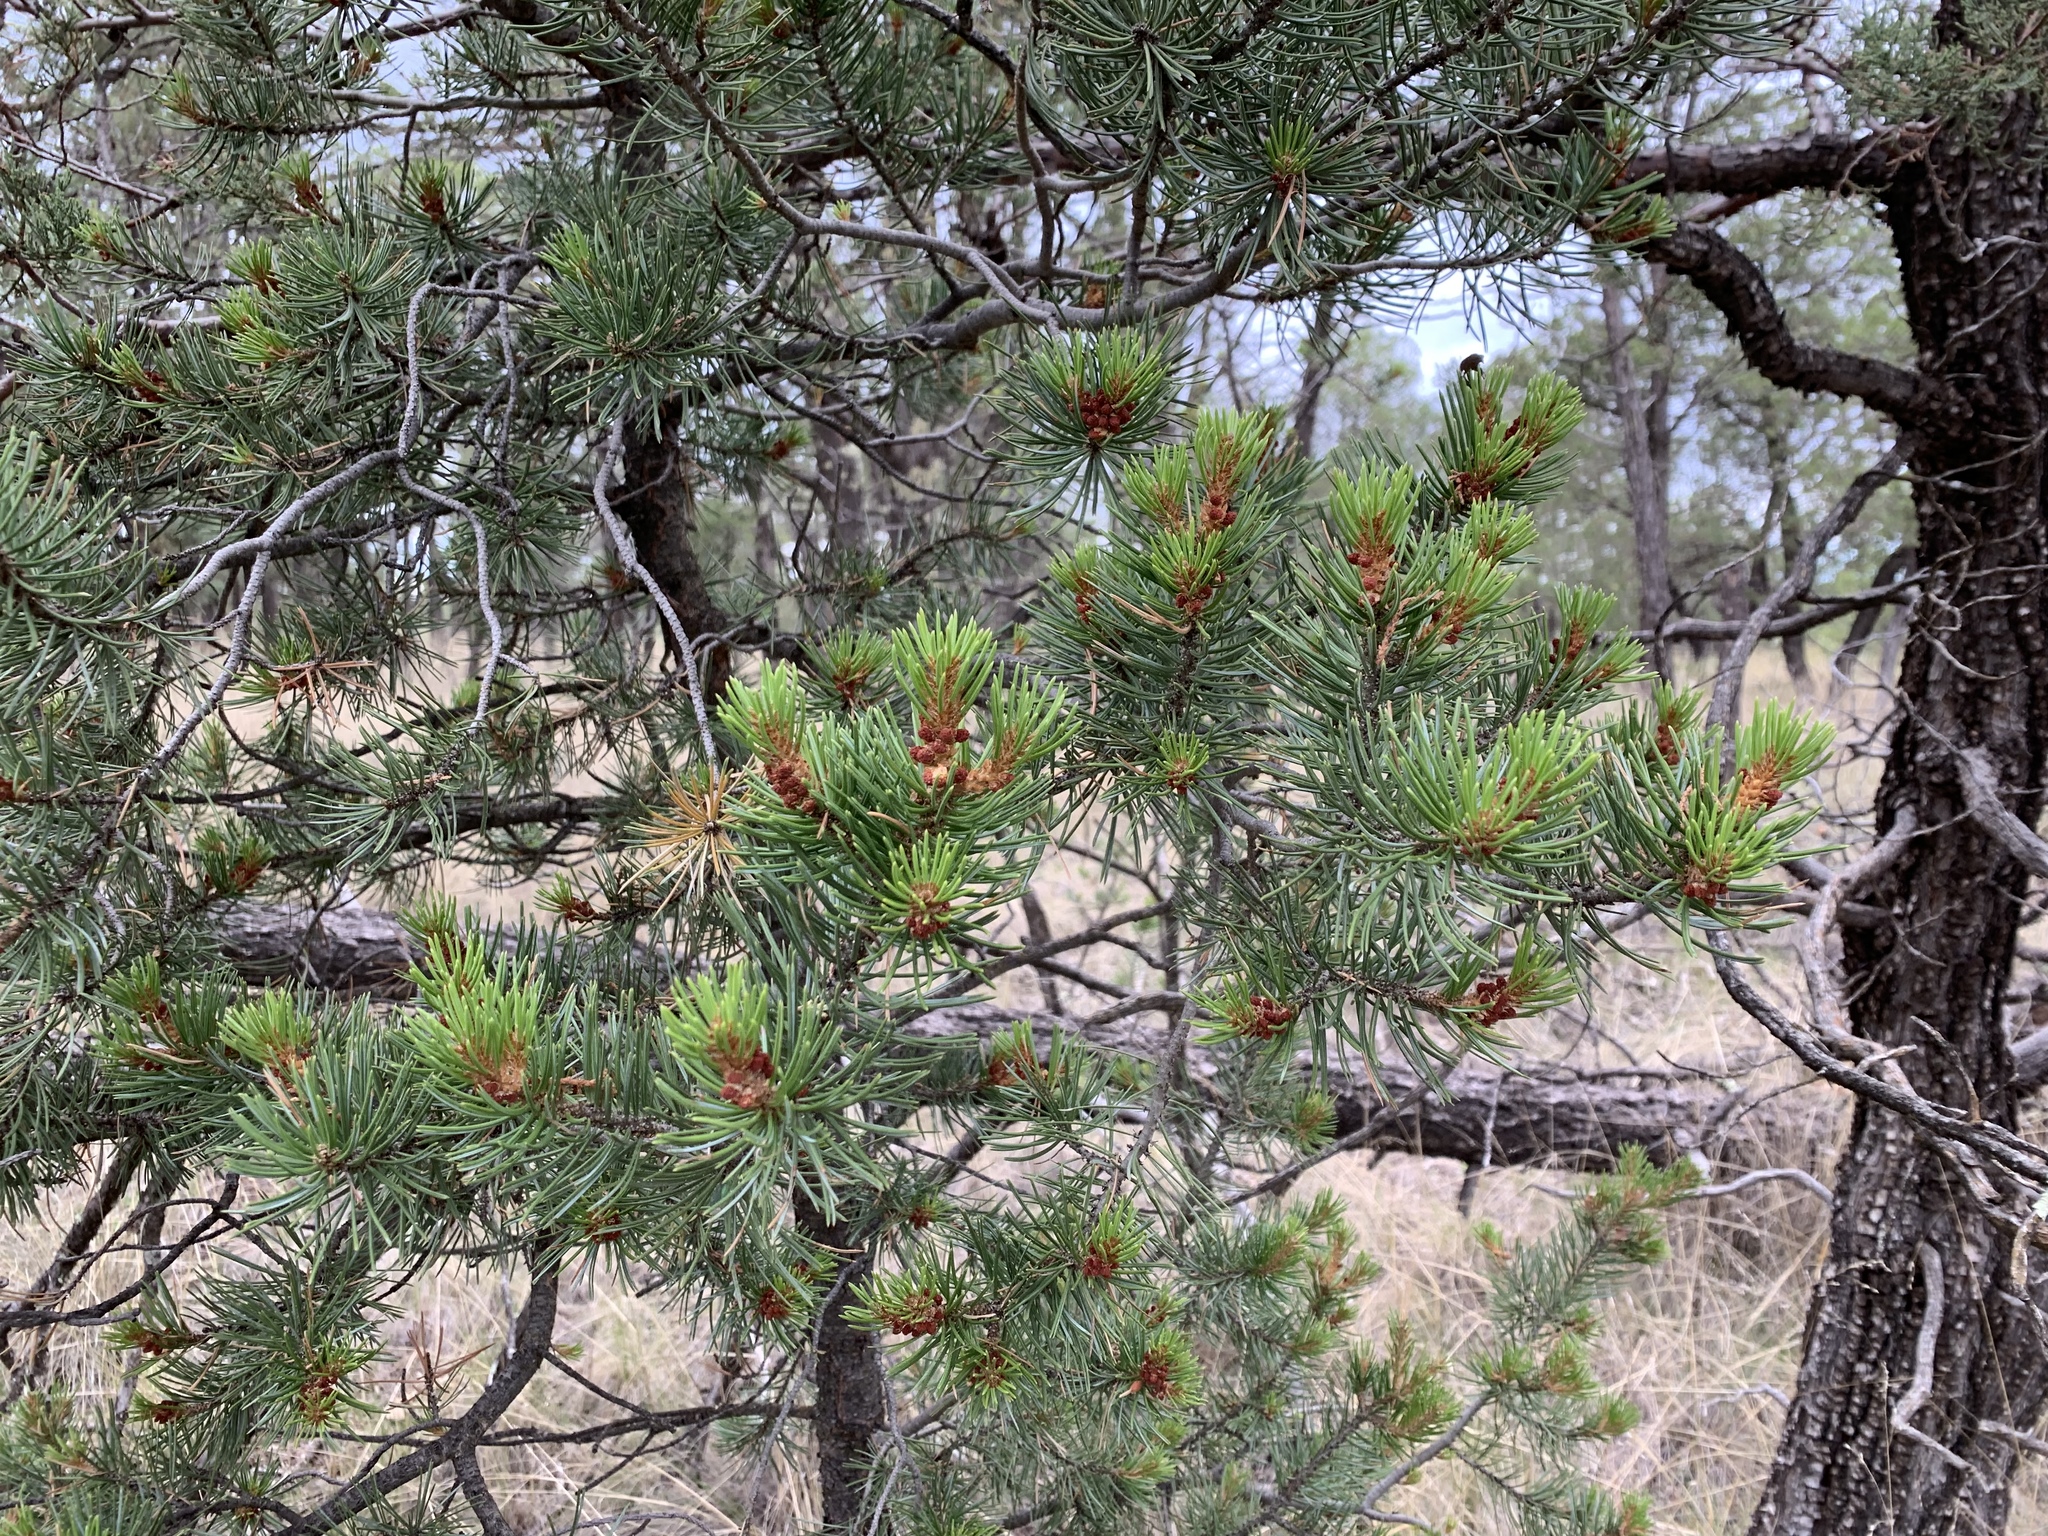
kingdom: Plantae
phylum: Tracheophyta
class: Pinopsida
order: Pinales
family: Pinaceae
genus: Pinus
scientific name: Pinus edulis
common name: Colorado pinyon
